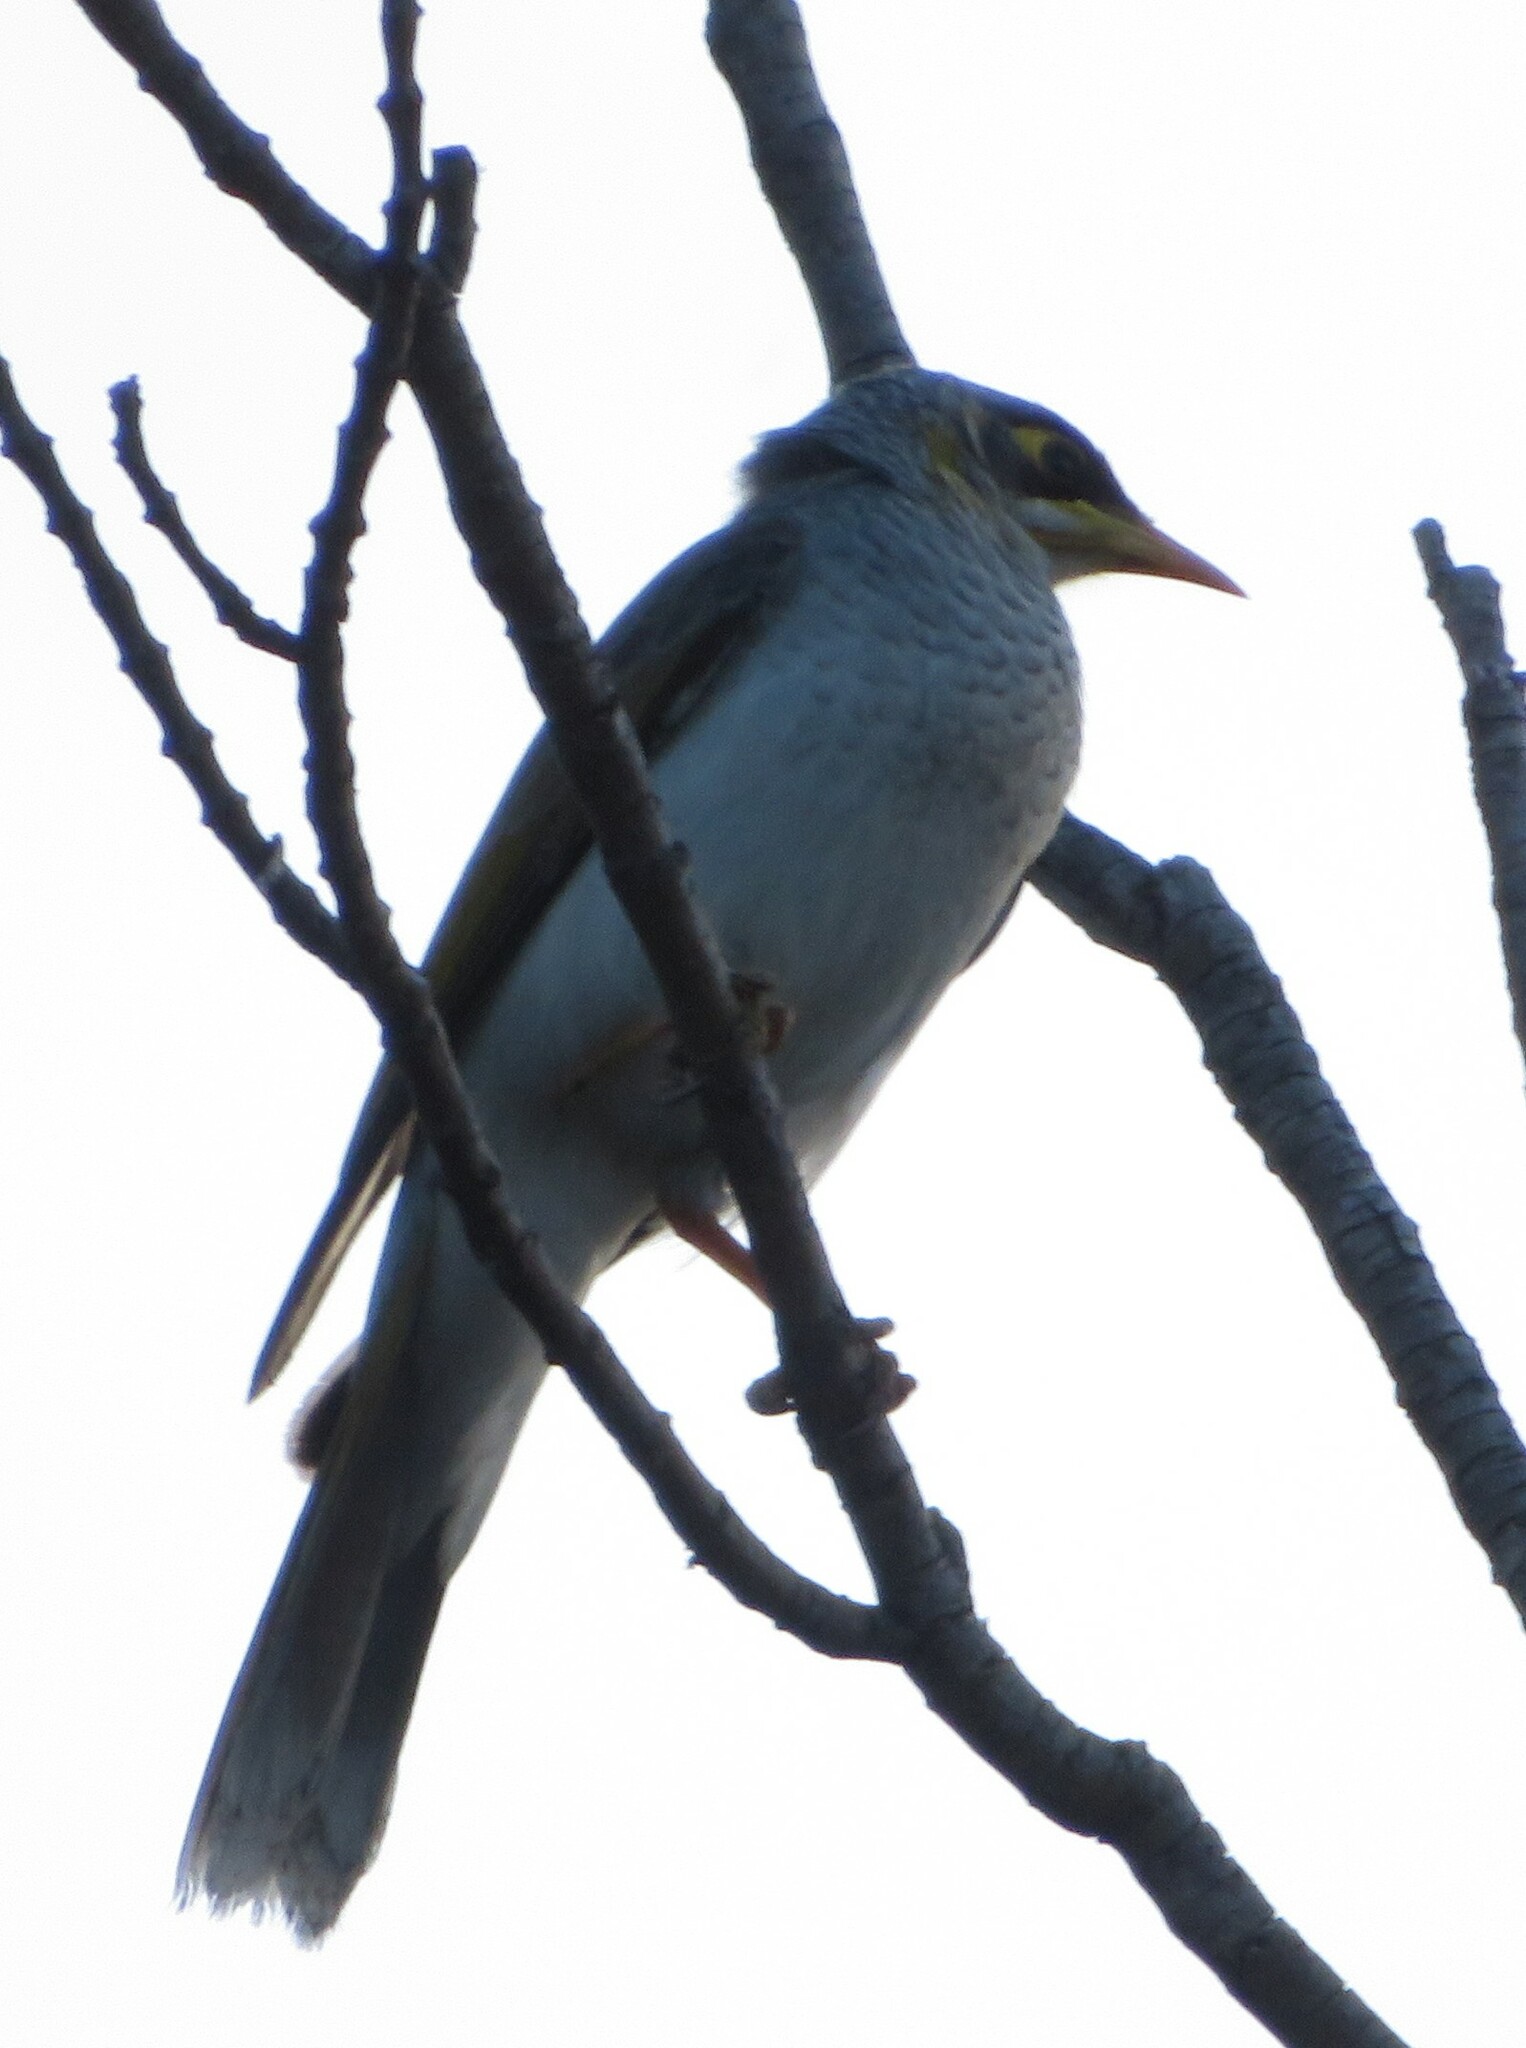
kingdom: Animalia
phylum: Chordata
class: Aves
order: Passeriformes
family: Meliphagidae
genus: Manorina
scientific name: Manorina flavigula
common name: Yellow-throated miner
